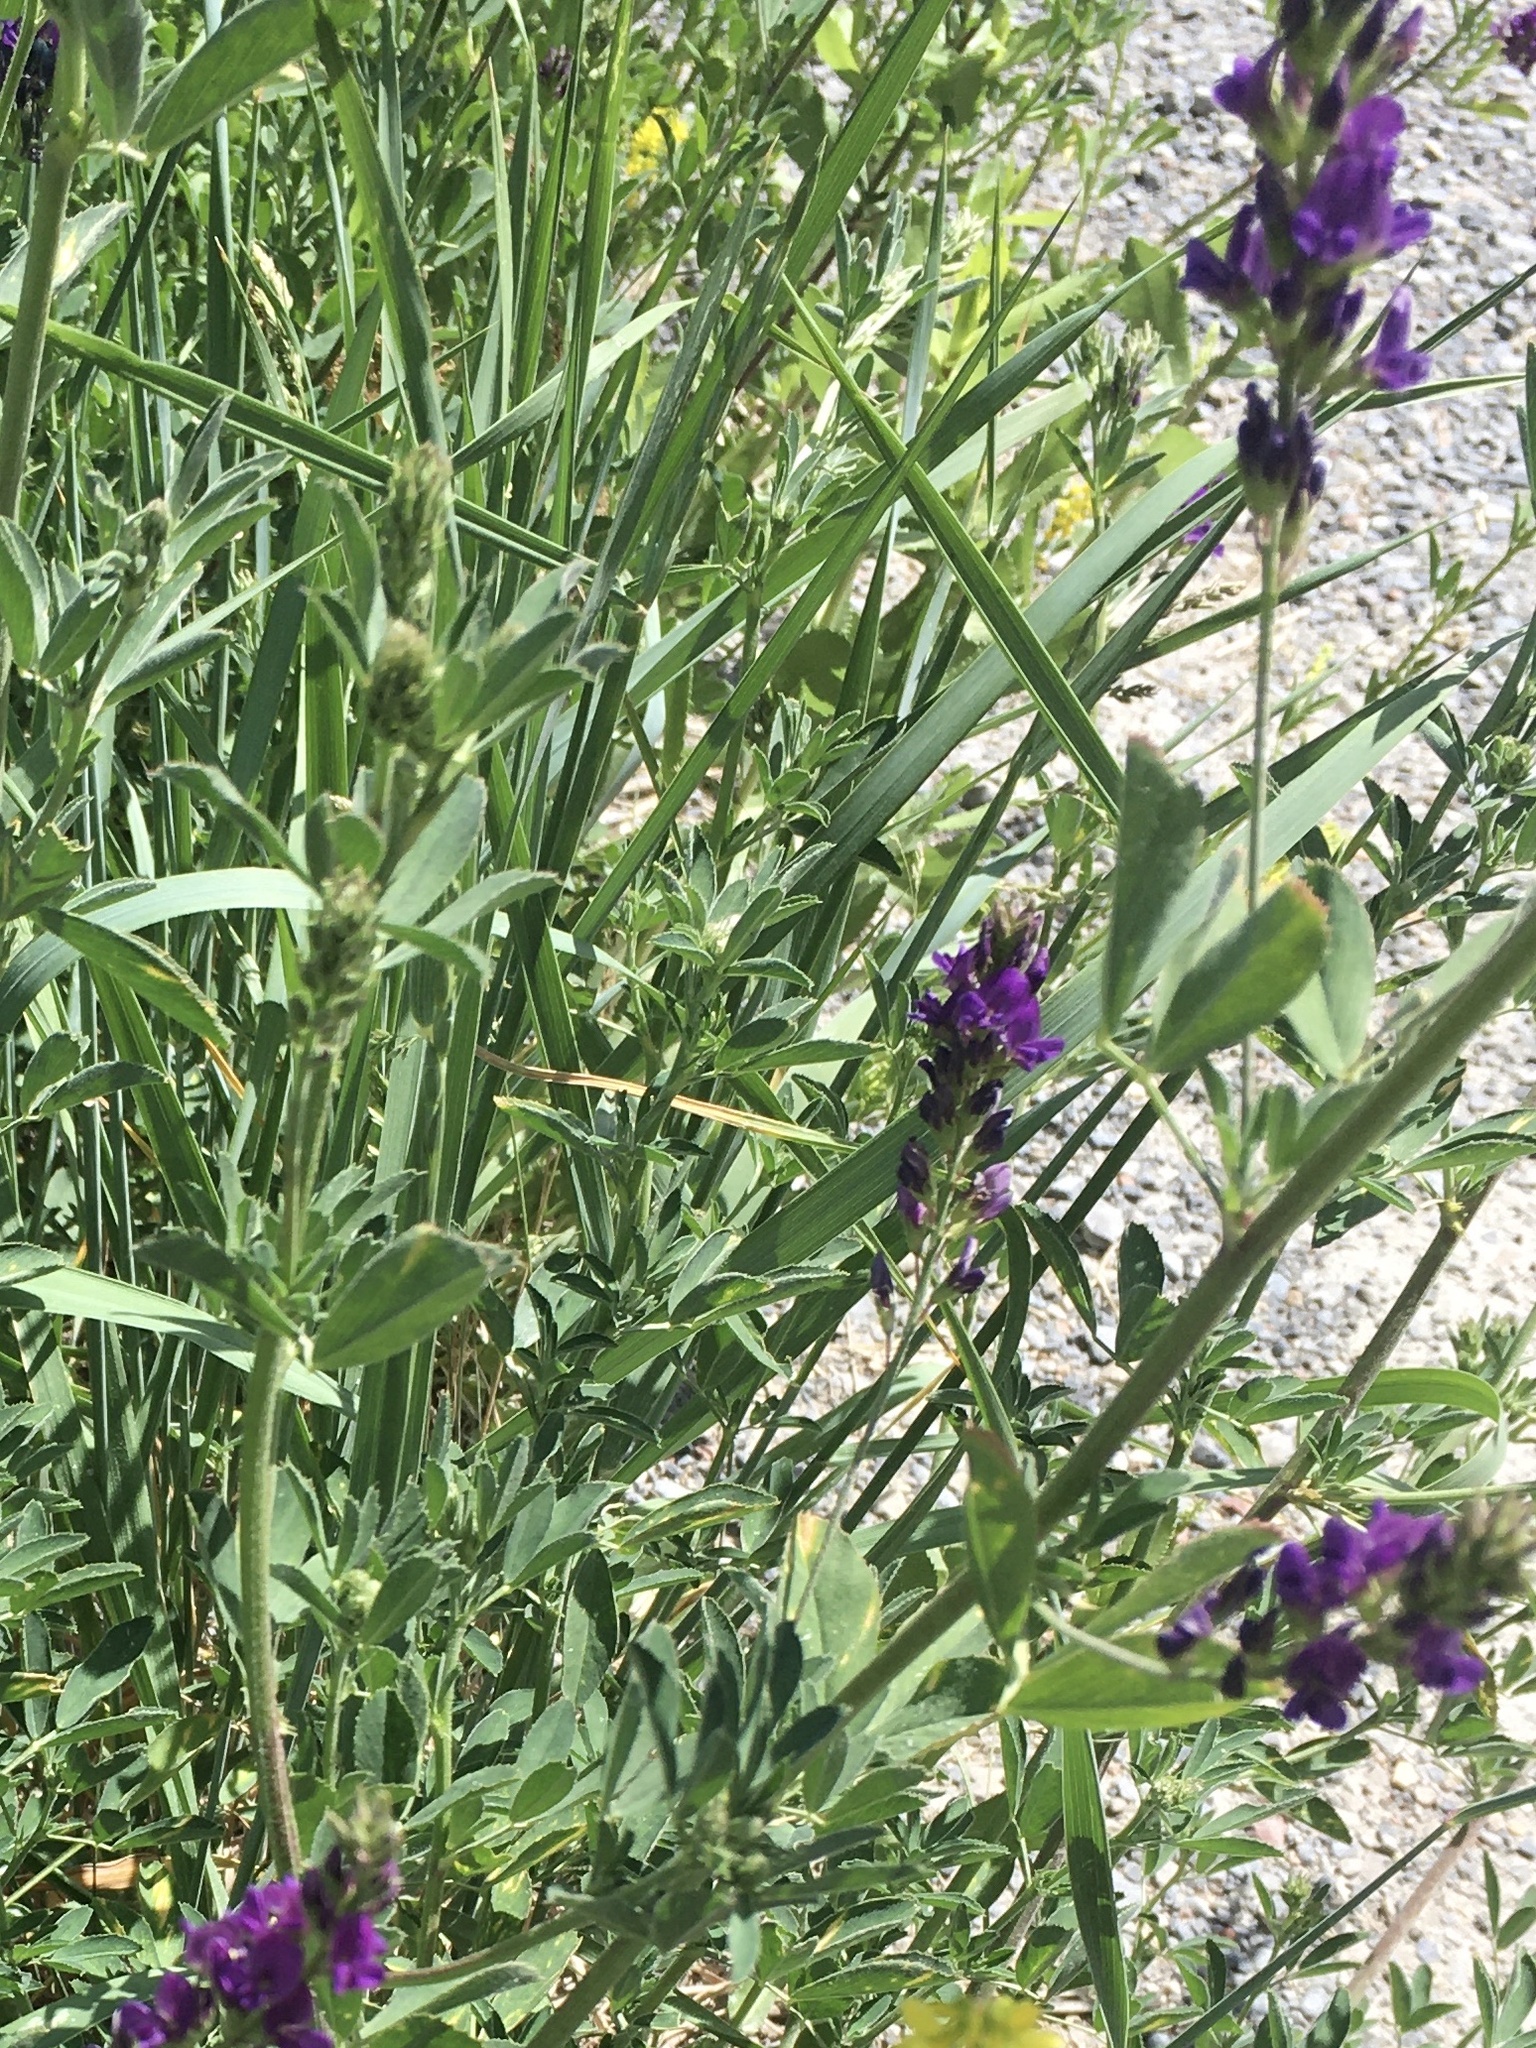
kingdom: Plantae
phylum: Tracheophyta
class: Magnoliopsida
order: Fabales
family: Fabaceae
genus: Medicago
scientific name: Medicago sativa
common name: Alfalfa
